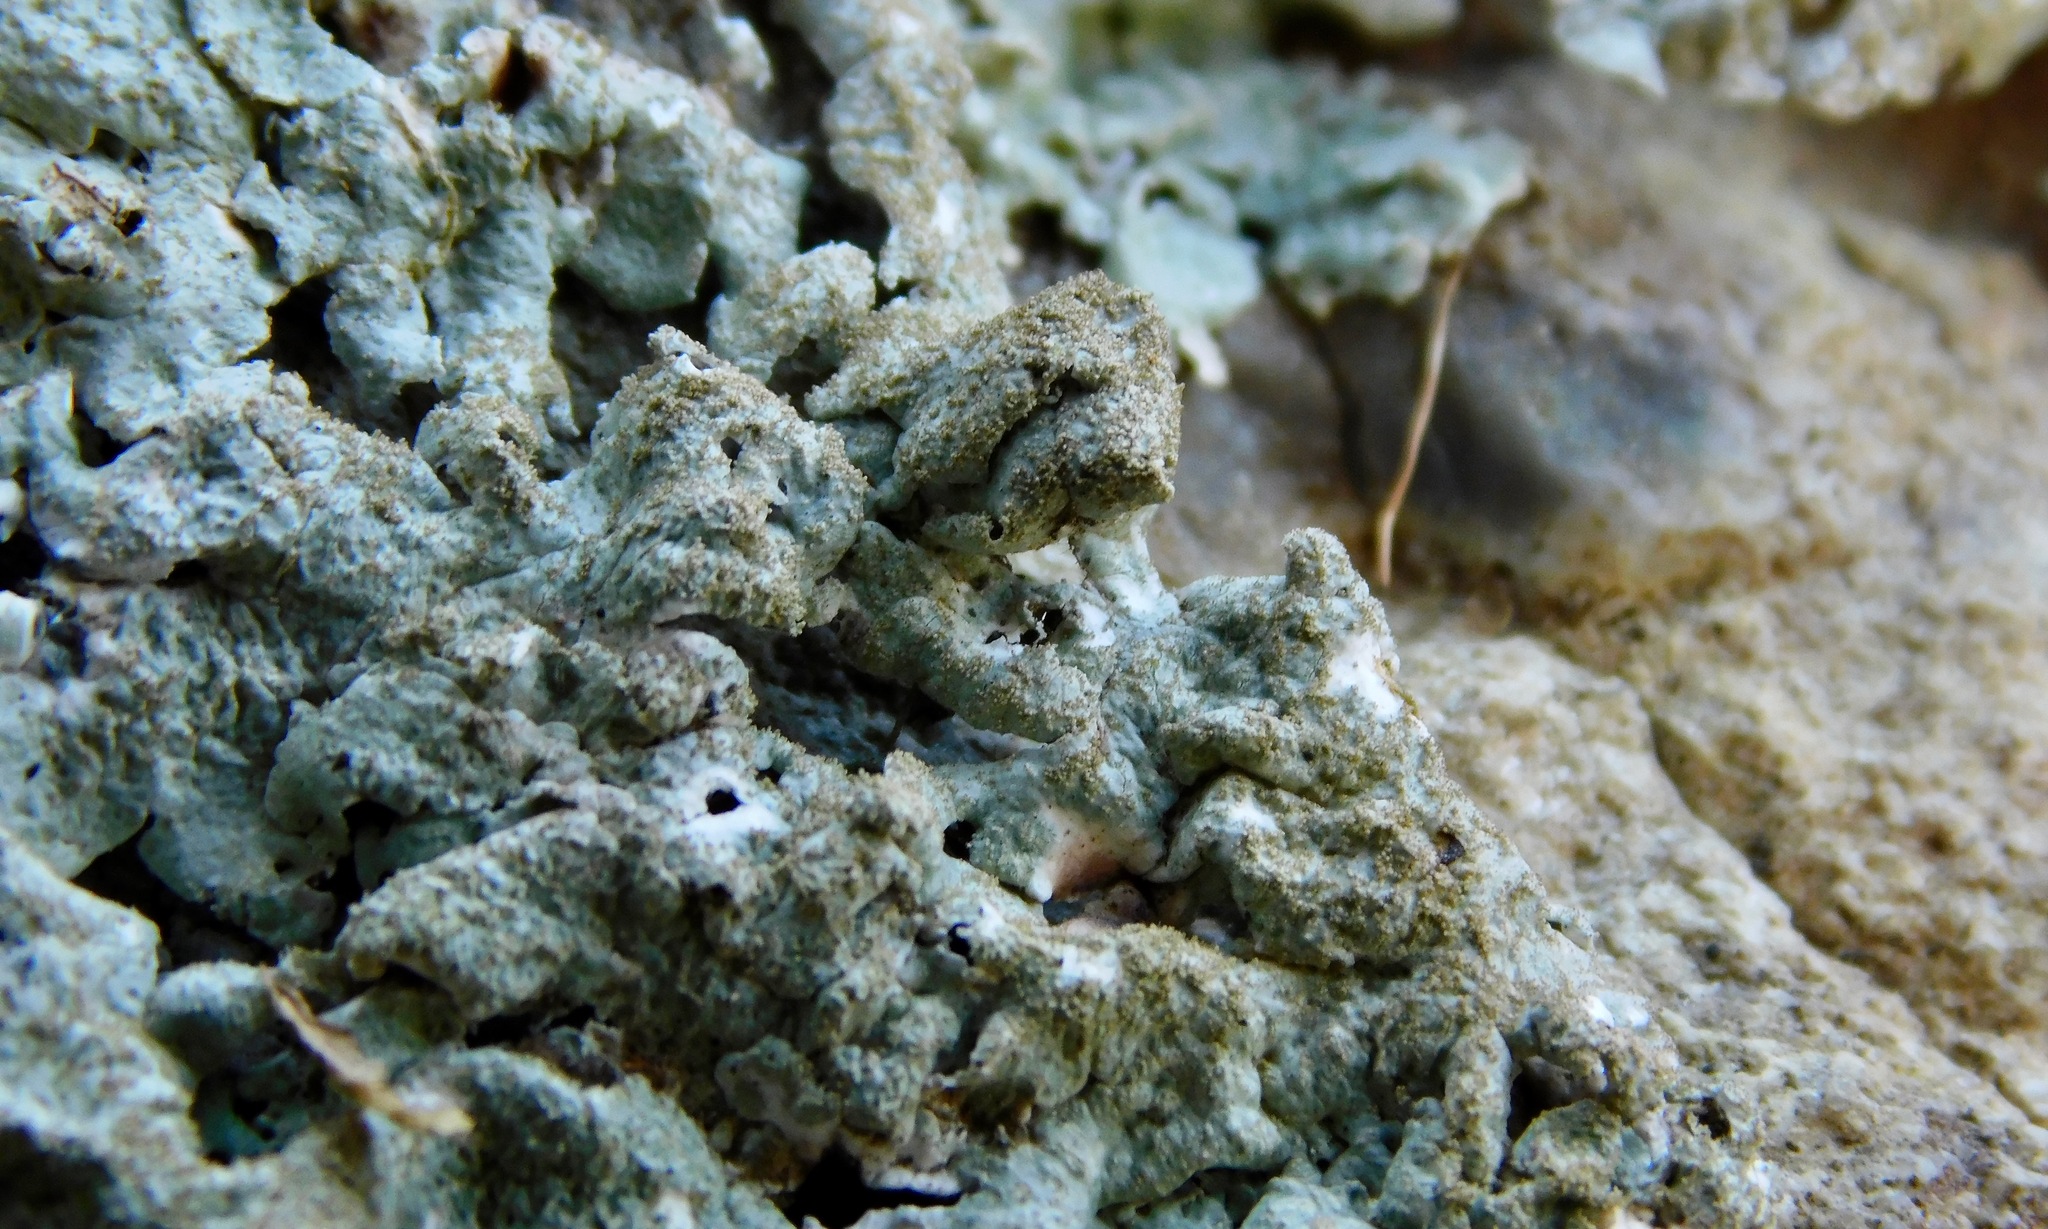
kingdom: Fungi
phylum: Ascomycota
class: Lecanoromycetes
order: Lecanorales
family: Parmeliaceae
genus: Canoparmelia
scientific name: Canoparmelia caroliniana
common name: Carolina shield lichen
